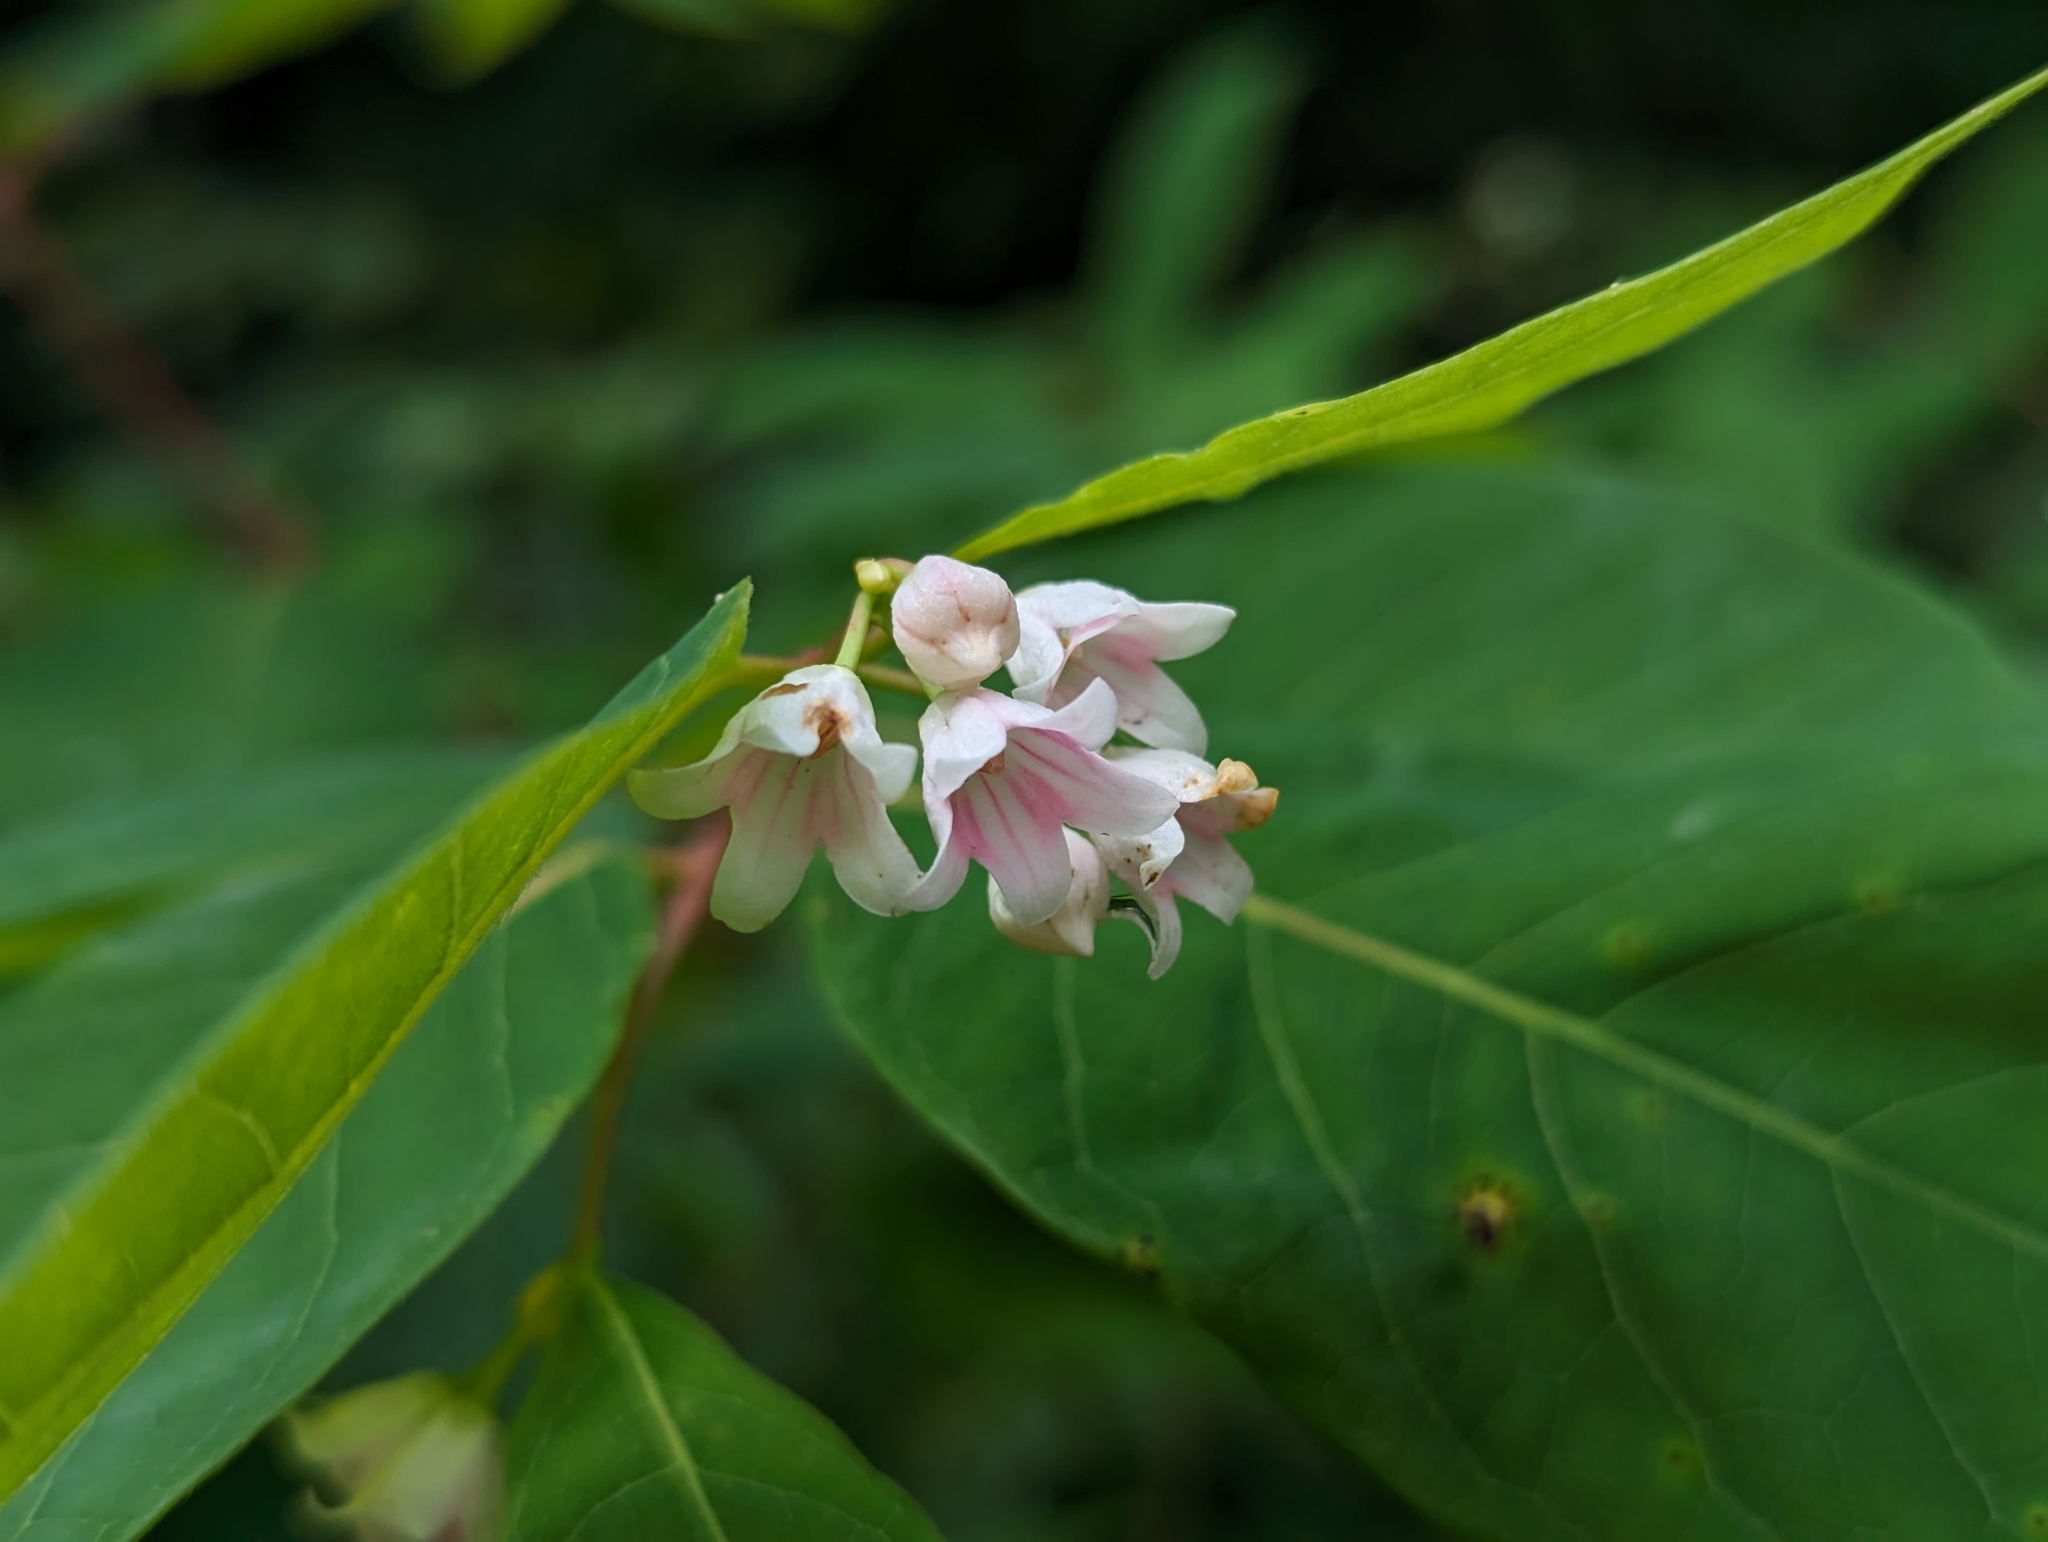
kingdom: Plantae
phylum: Tracheophyta
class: Magnoliopsida
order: Gentianales
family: Apocynaceae
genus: Apocynum
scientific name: Apocynum androsaemifolium
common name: Spreading dogbane
